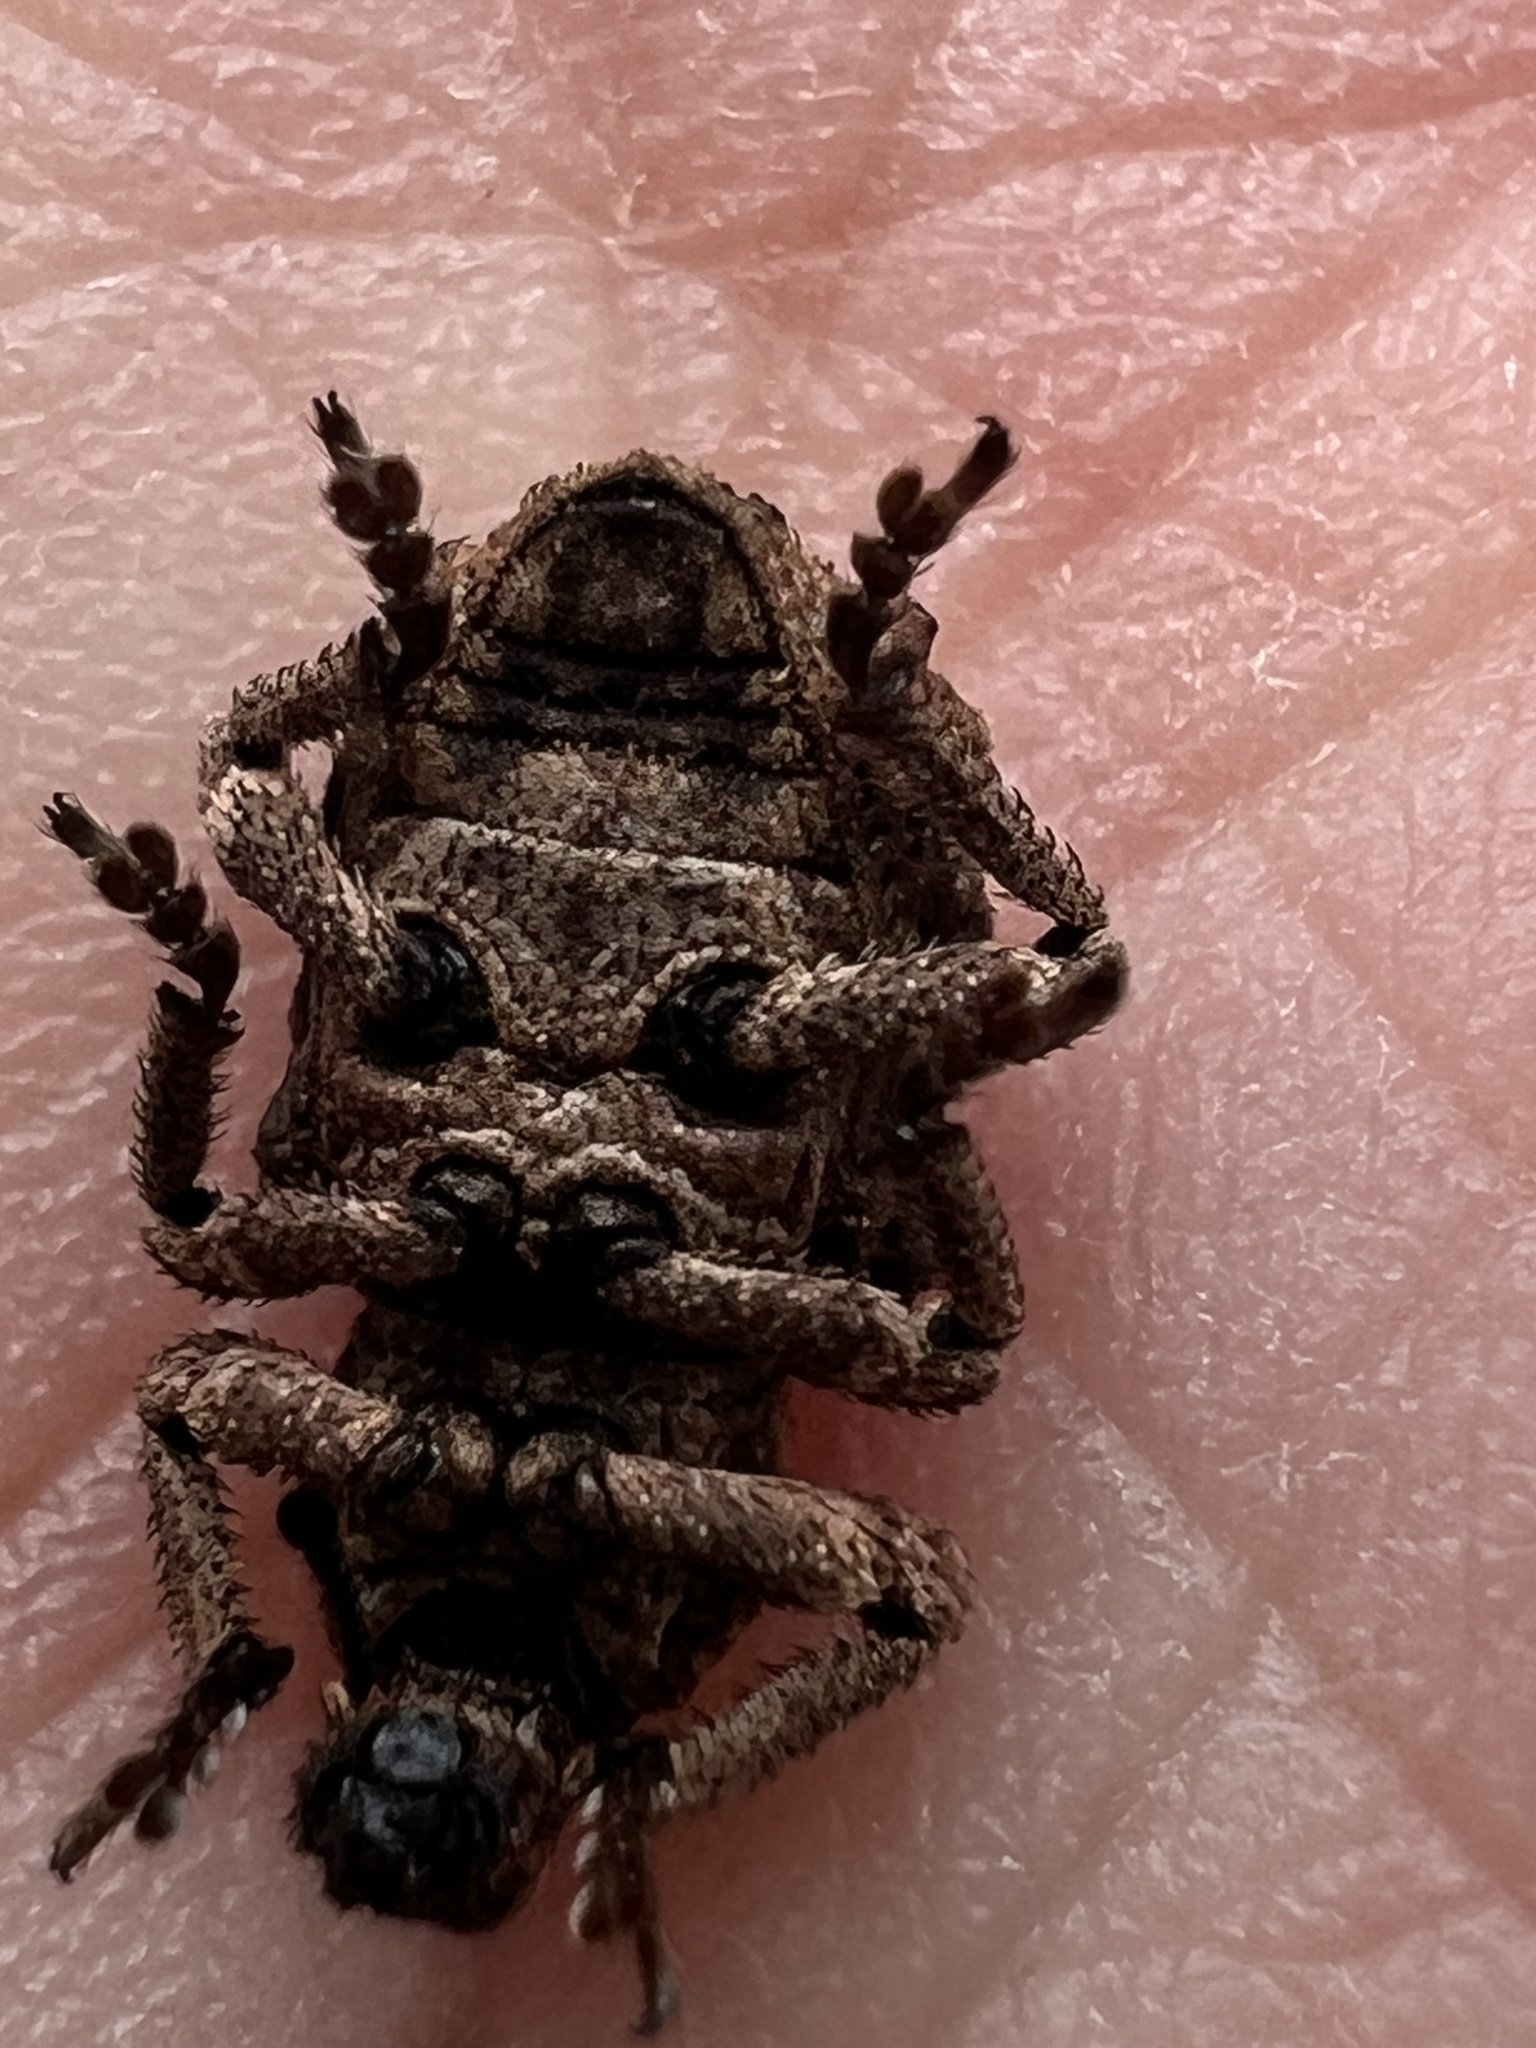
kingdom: Animalia
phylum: Arthropoda
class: Insecta
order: Coleoptera
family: Curculionidae
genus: Baryopadus
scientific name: Baryopadus corrugatus
